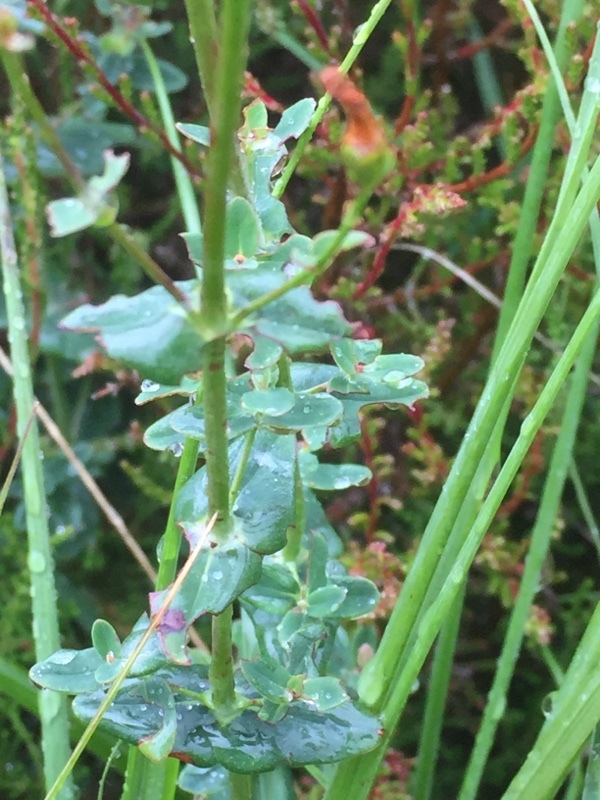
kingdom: Plantae
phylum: Tracheophyta
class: Magnoliopsida
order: Malpighiales
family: Hypericaceae
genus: Hypericum
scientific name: Hypericum pulchrum
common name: Slender st. john's-wort
